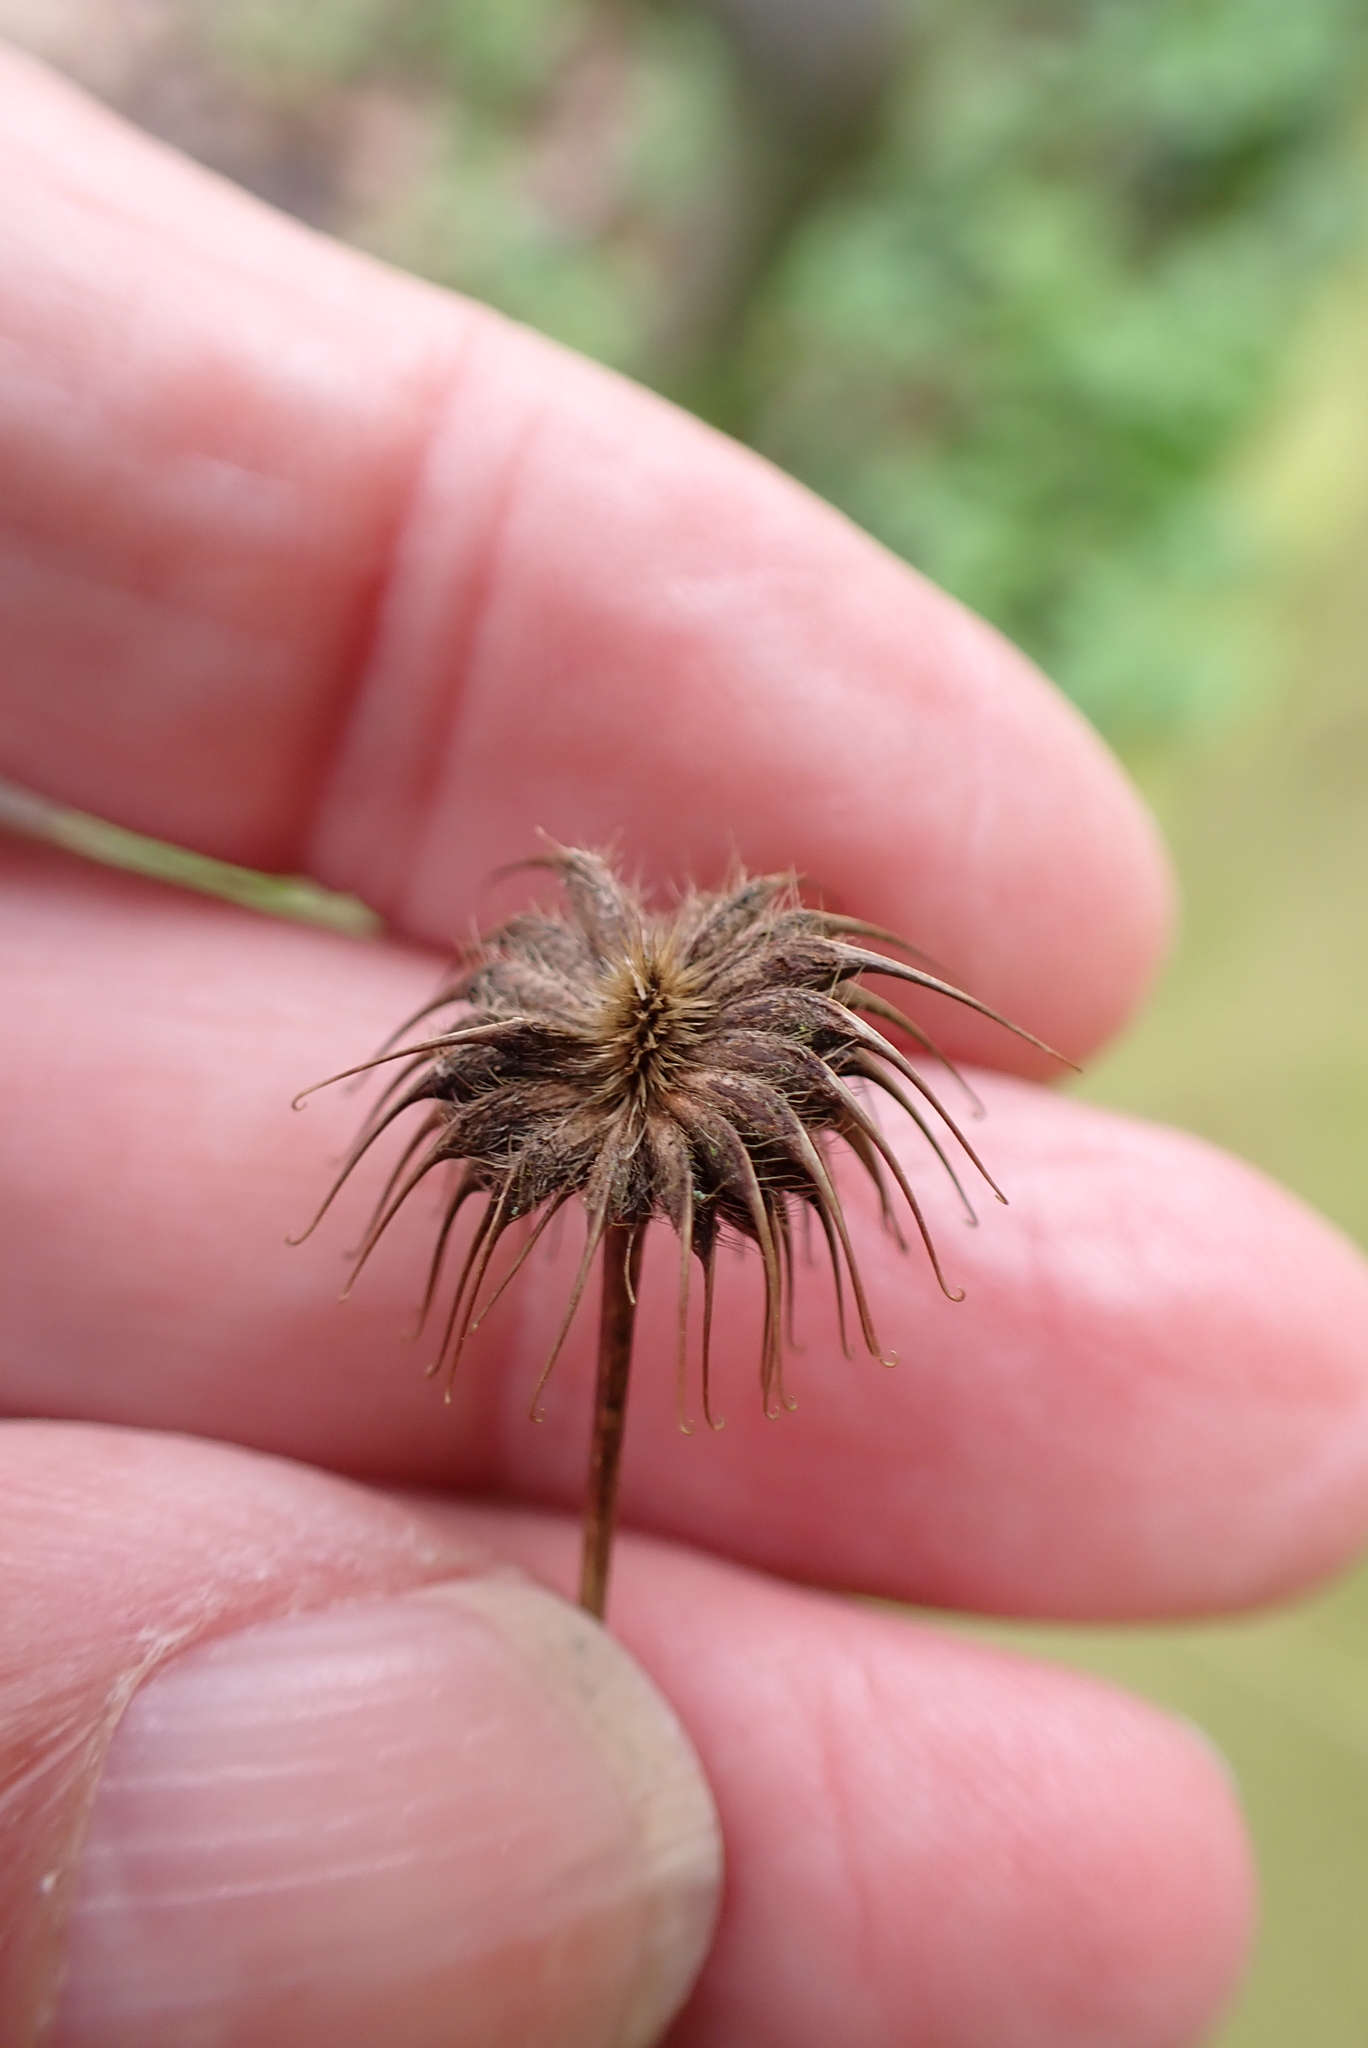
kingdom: Plantae
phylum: Tracheophyta
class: Magnoliopsida
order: Rosales
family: Rosaceae
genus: Geum
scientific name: Geum urbanum
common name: Wood avens
